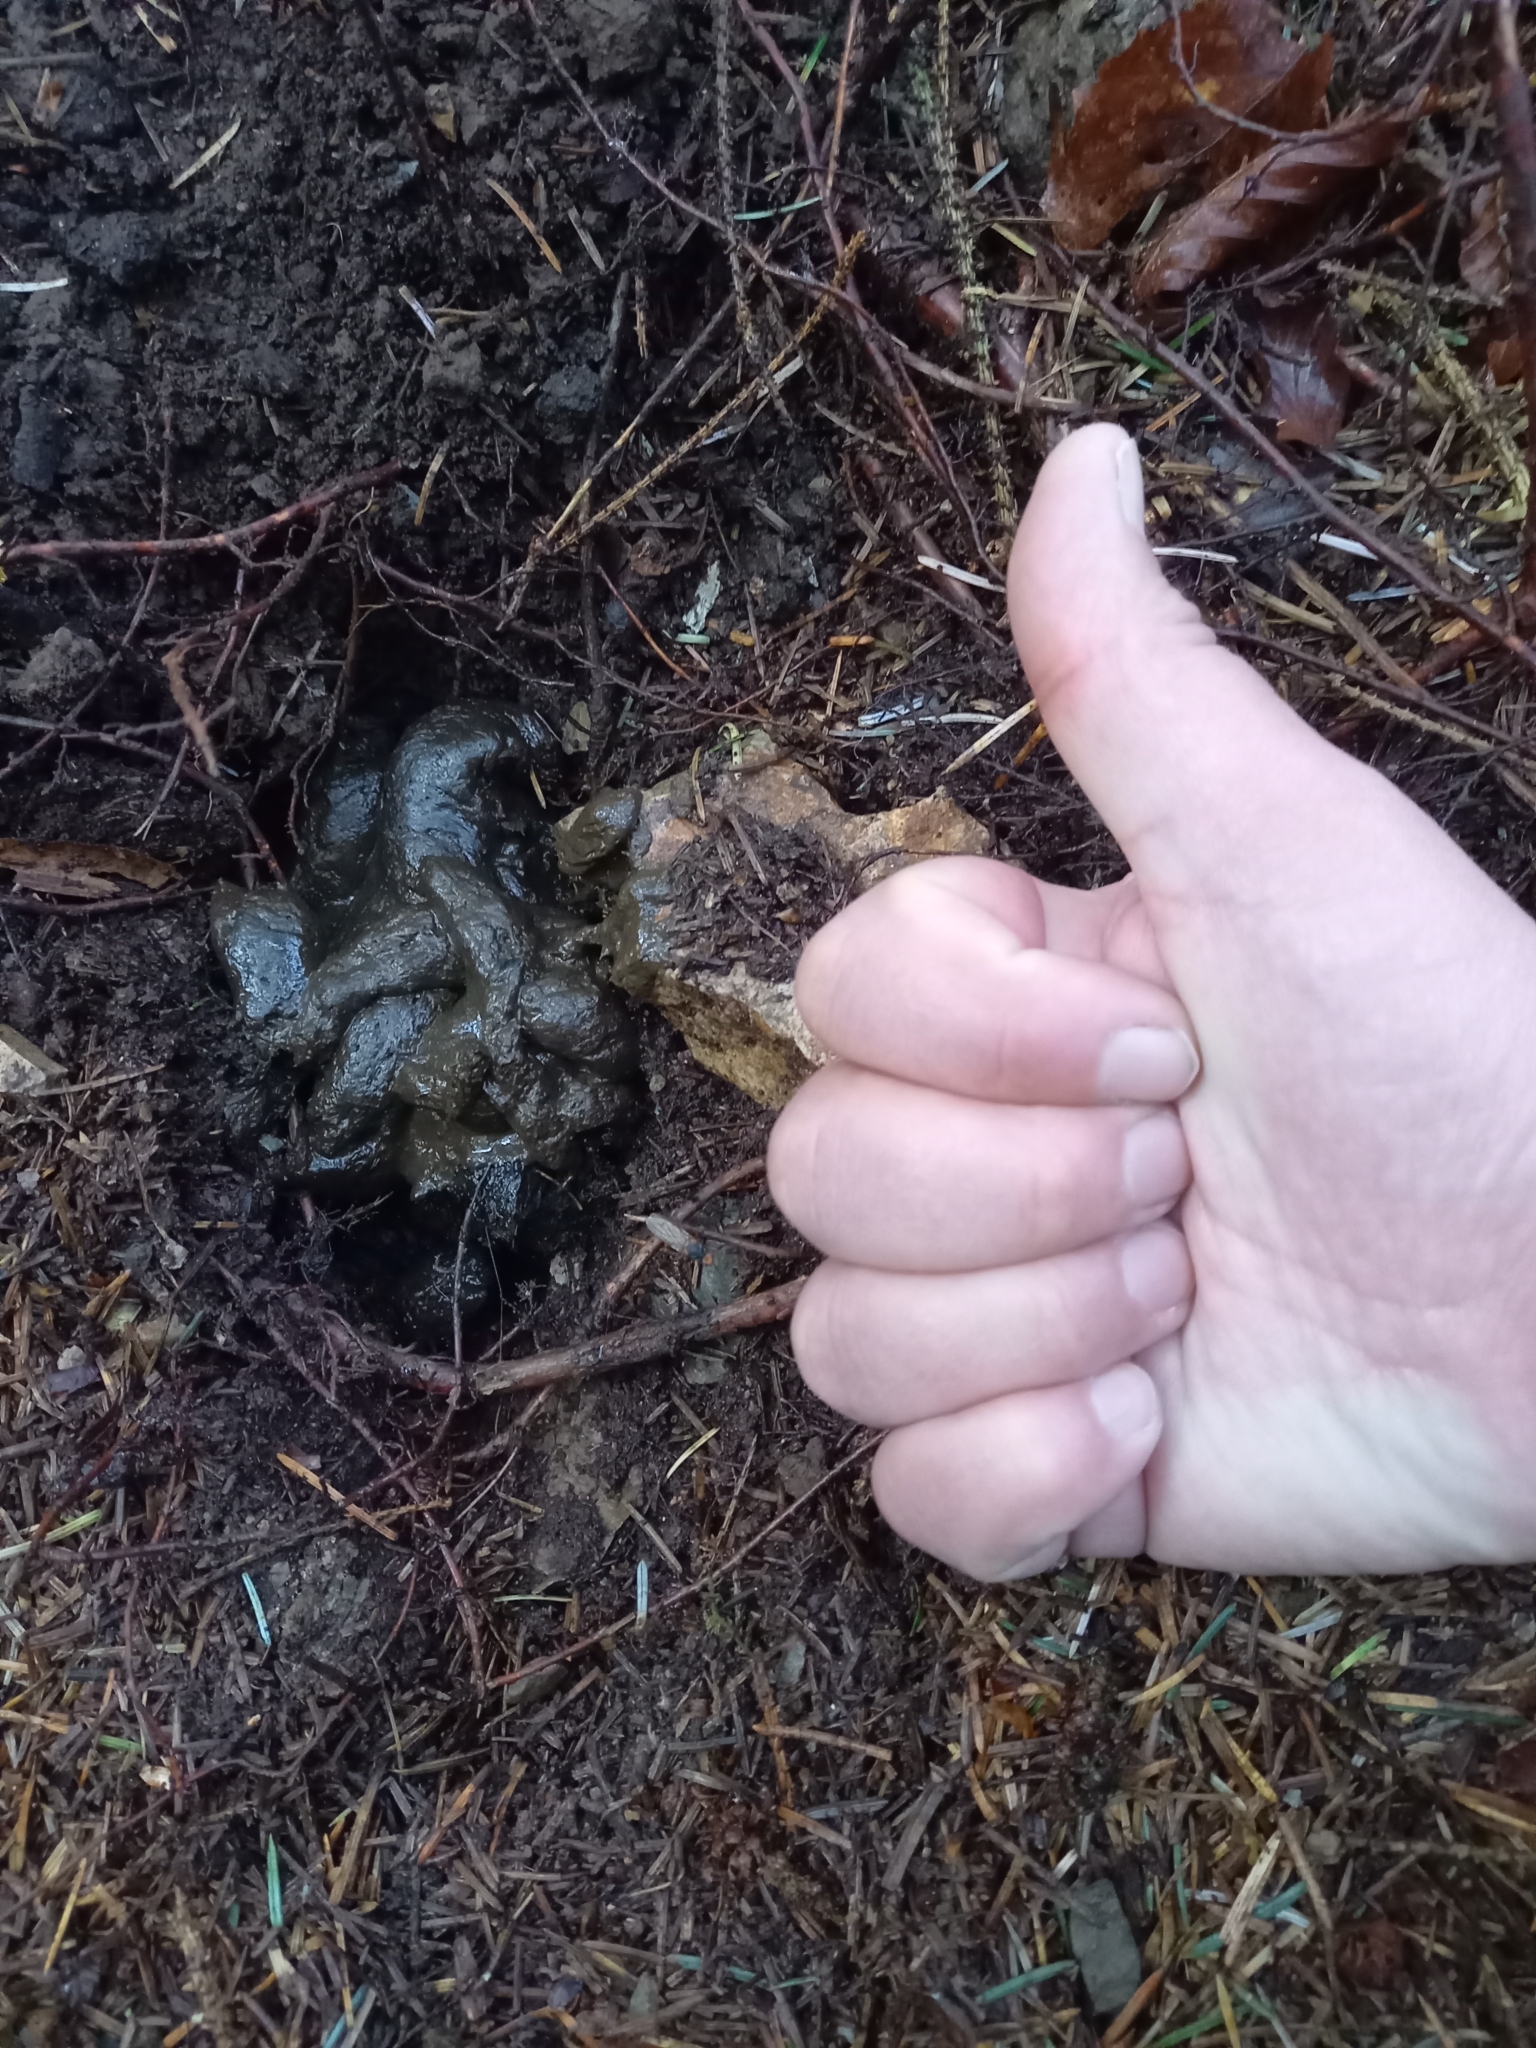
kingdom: Animalia
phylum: Chordata
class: Mammalia
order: Carnivora
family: Mustelidae
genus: Meles
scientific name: Meles meles
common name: Eurasian badger
